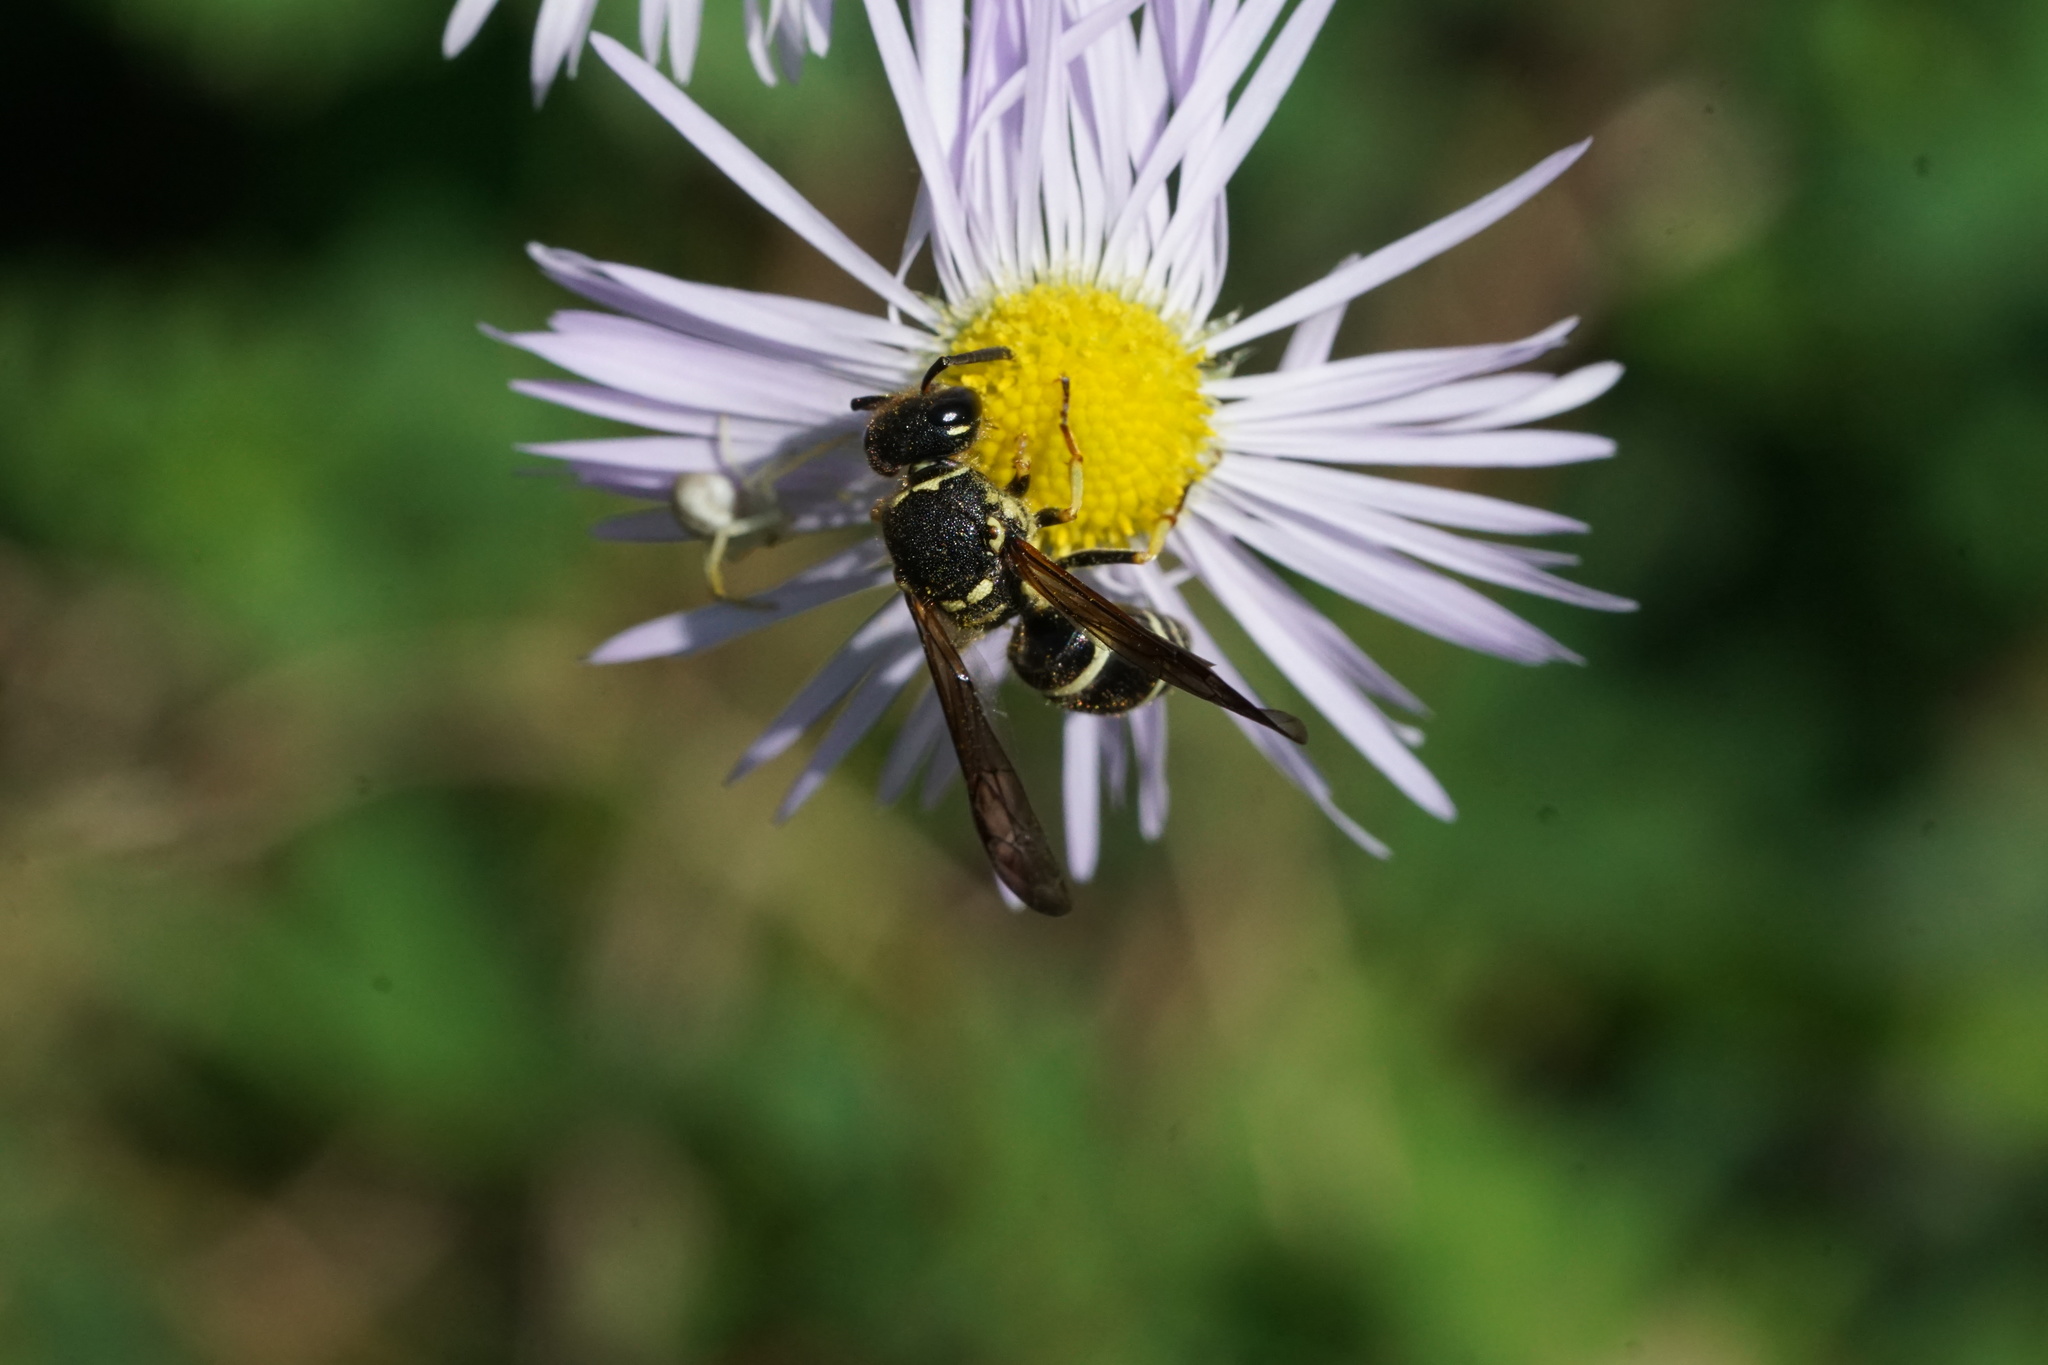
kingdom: Animalia
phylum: Arthropoda
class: Insecta
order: Hymenoptera
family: Vespidae
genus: Ancistrocerus
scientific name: Ancistrocerus catskill
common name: Vespid wasp
